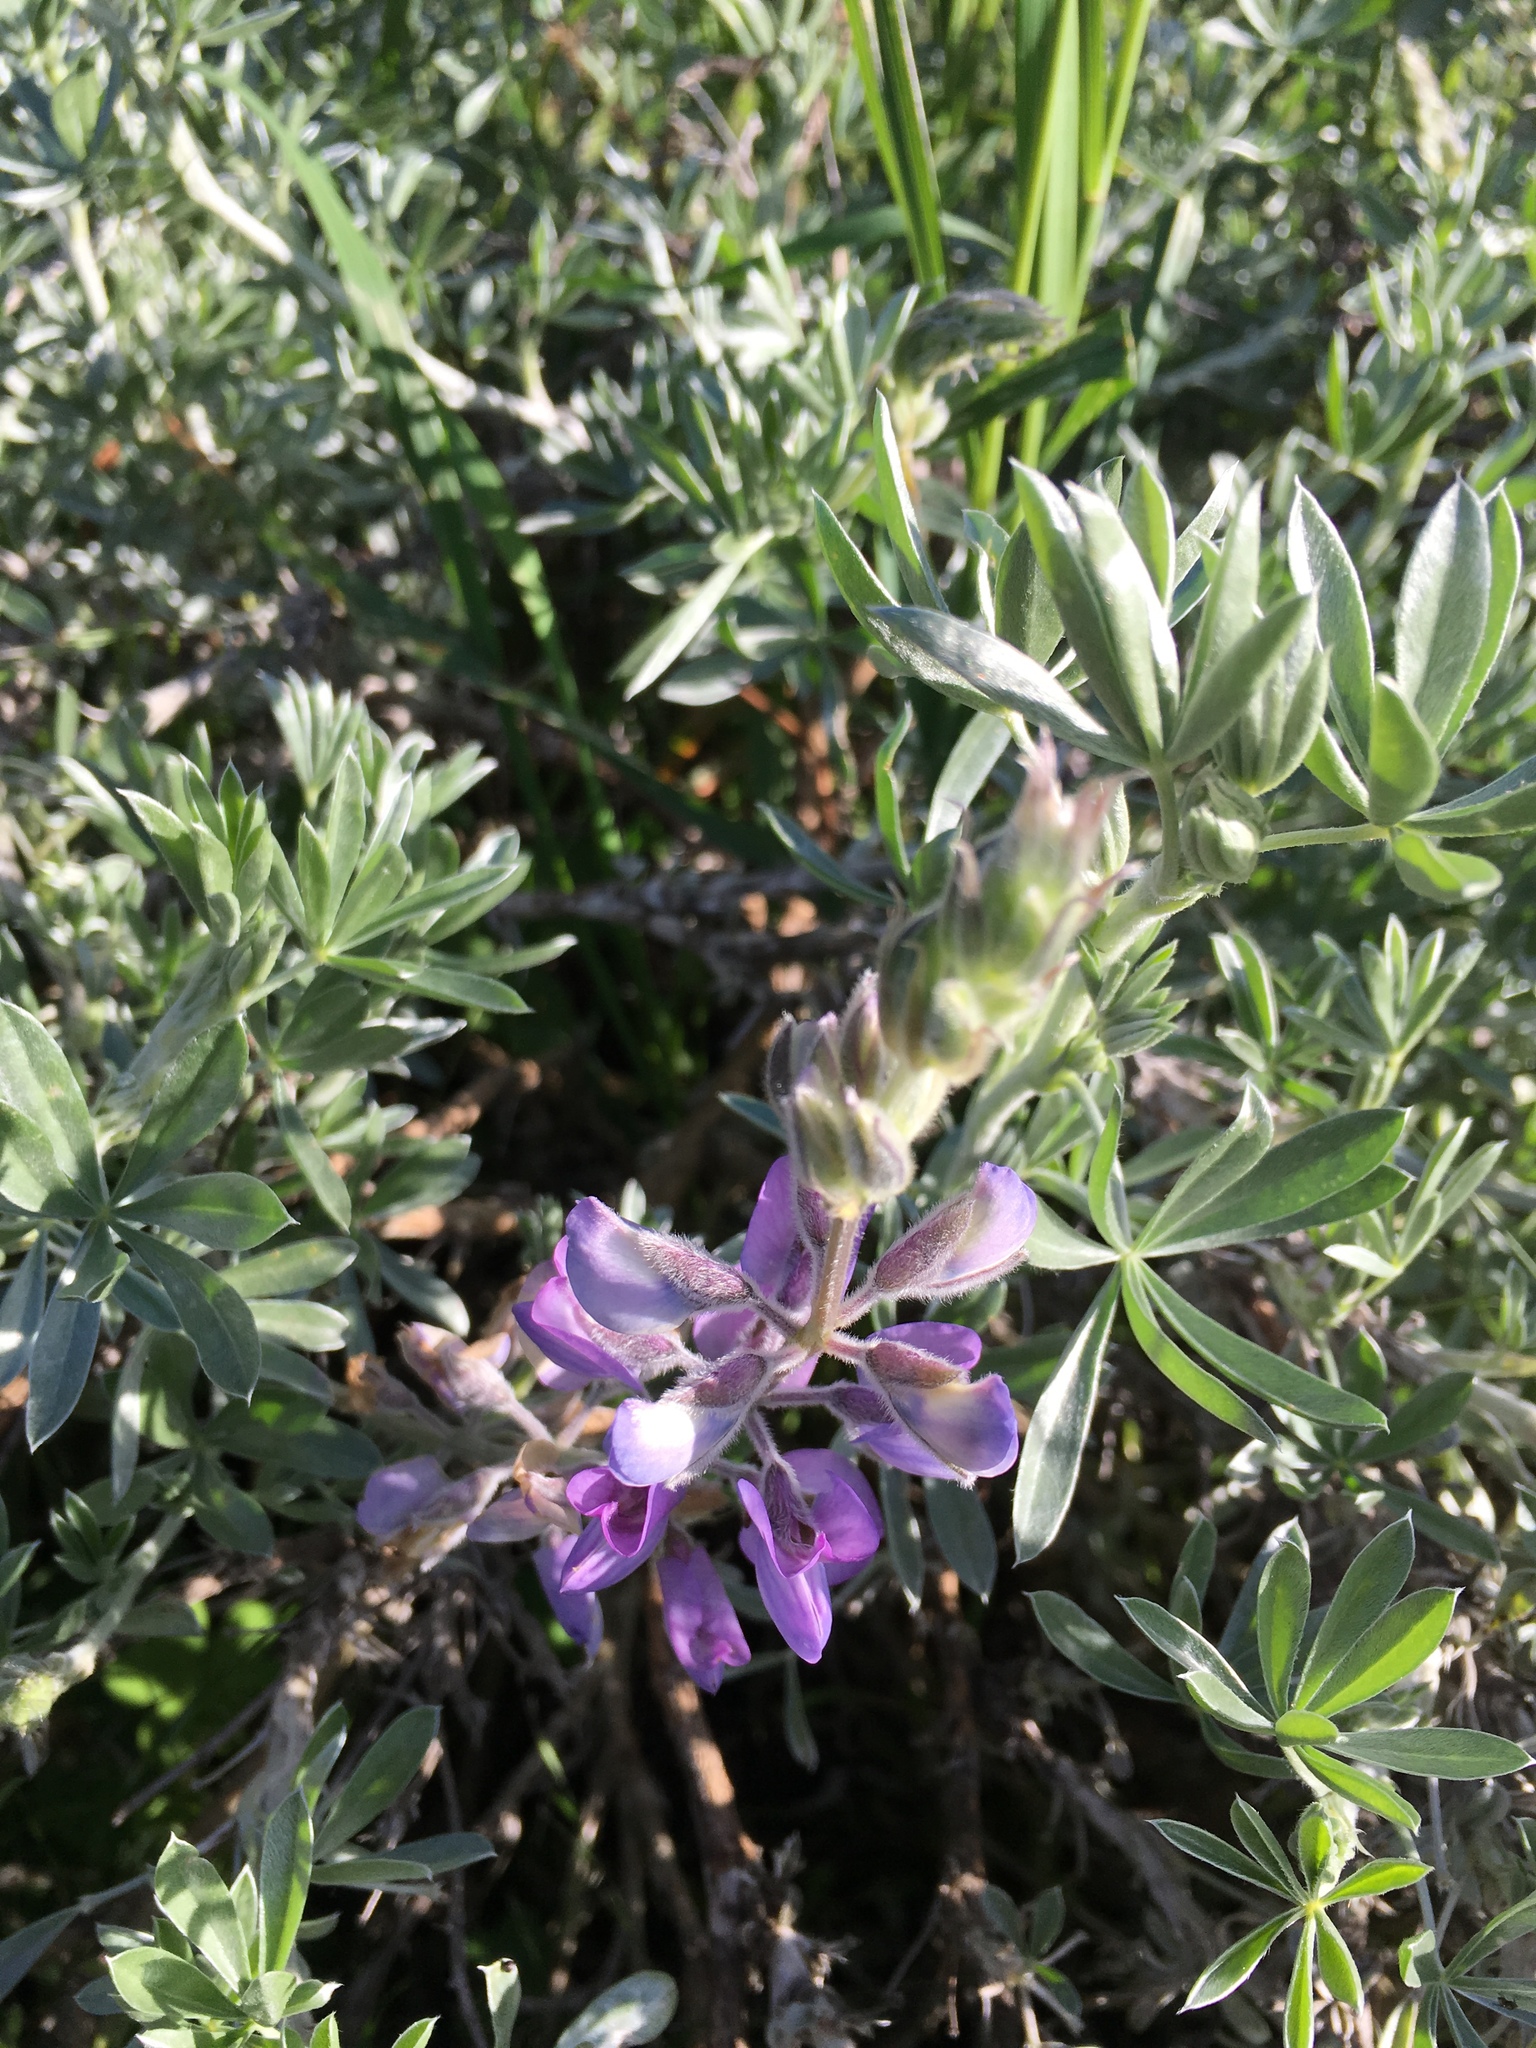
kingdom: Plantae
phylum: Tracheophyta
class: Magnoliopsida
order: Fabales
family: Fabaceae
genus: Lupinus
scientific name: Lupinus chamissonis
